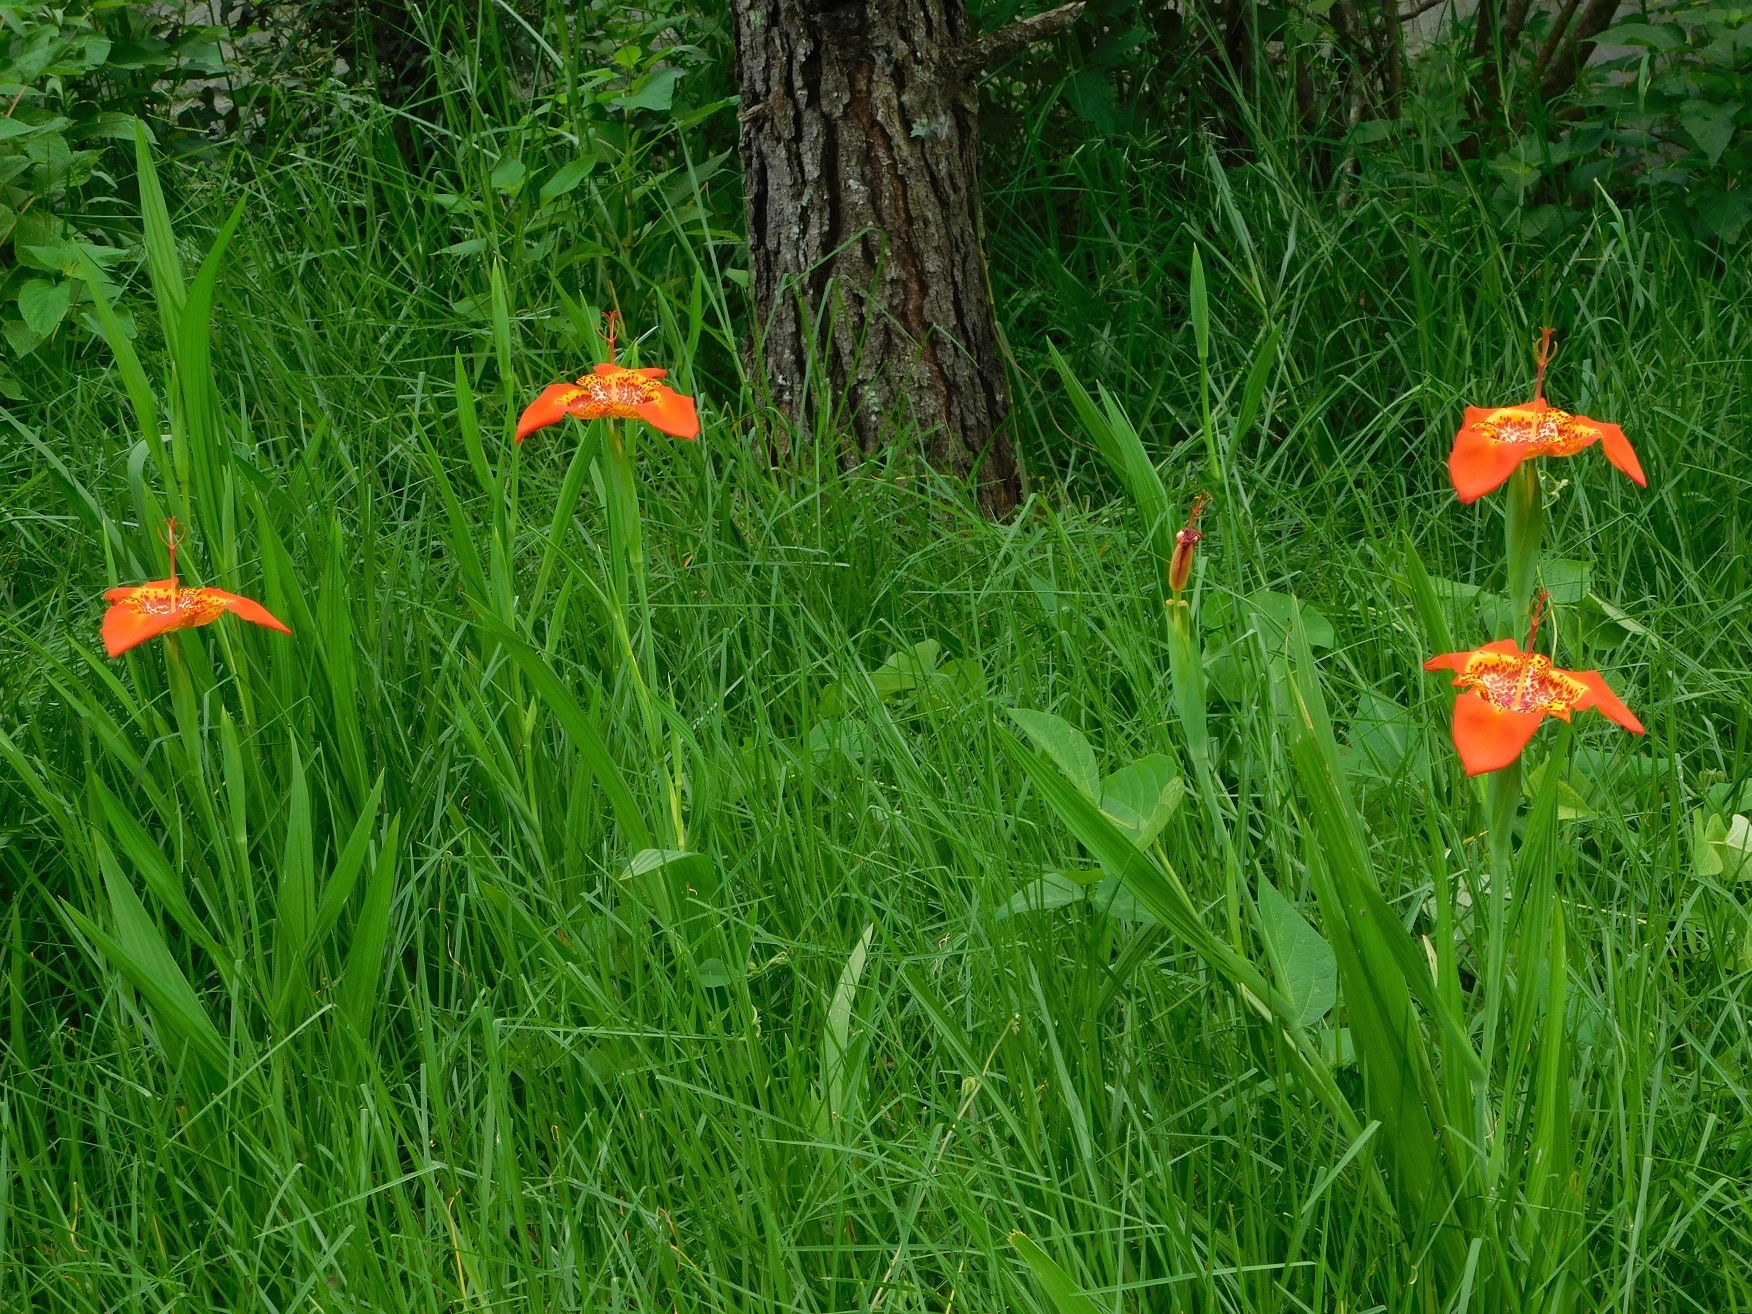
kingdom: Plantae
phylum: Tracheophyta
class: Liliopsida
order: Asparagales
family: Iridaceae
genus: Tigridia
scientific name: Tigridia pavonia
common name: Peacock-flower
